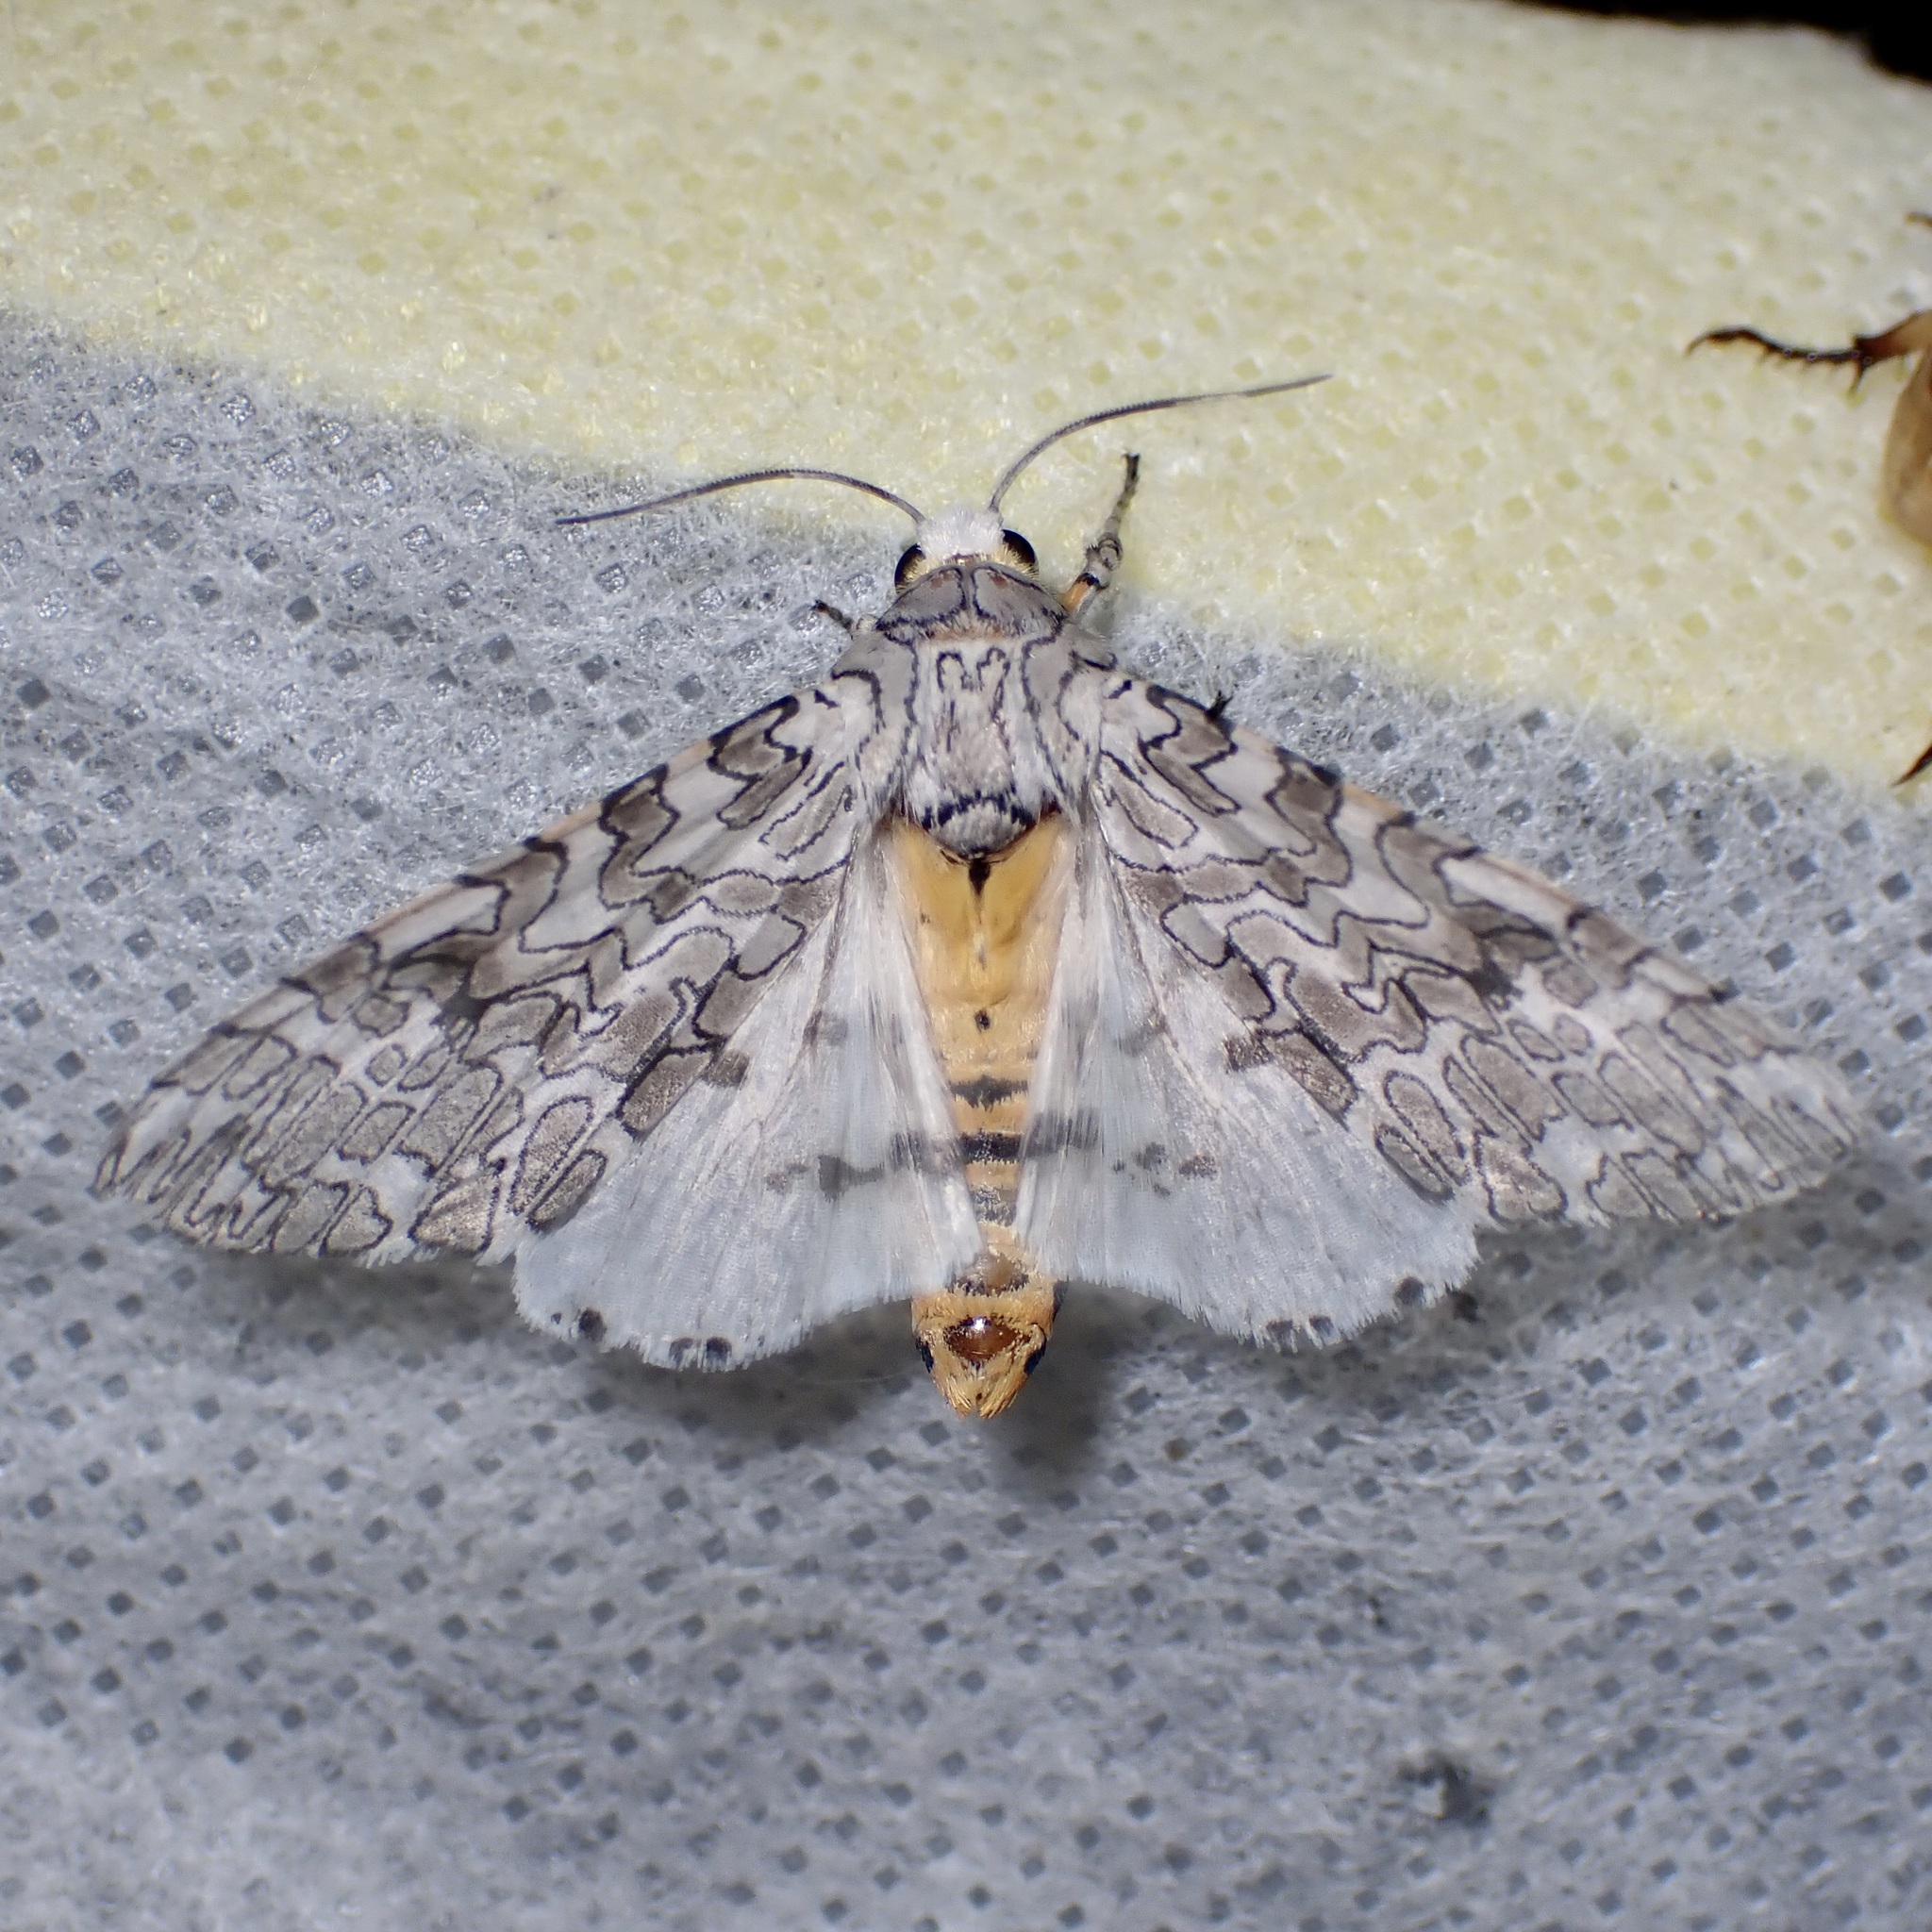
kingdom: Animalia
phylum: Arthropoda
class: Insecta
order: Lepidoptera
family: Erebidae
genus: Hypercompe
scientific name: Hypercompe suffusa
